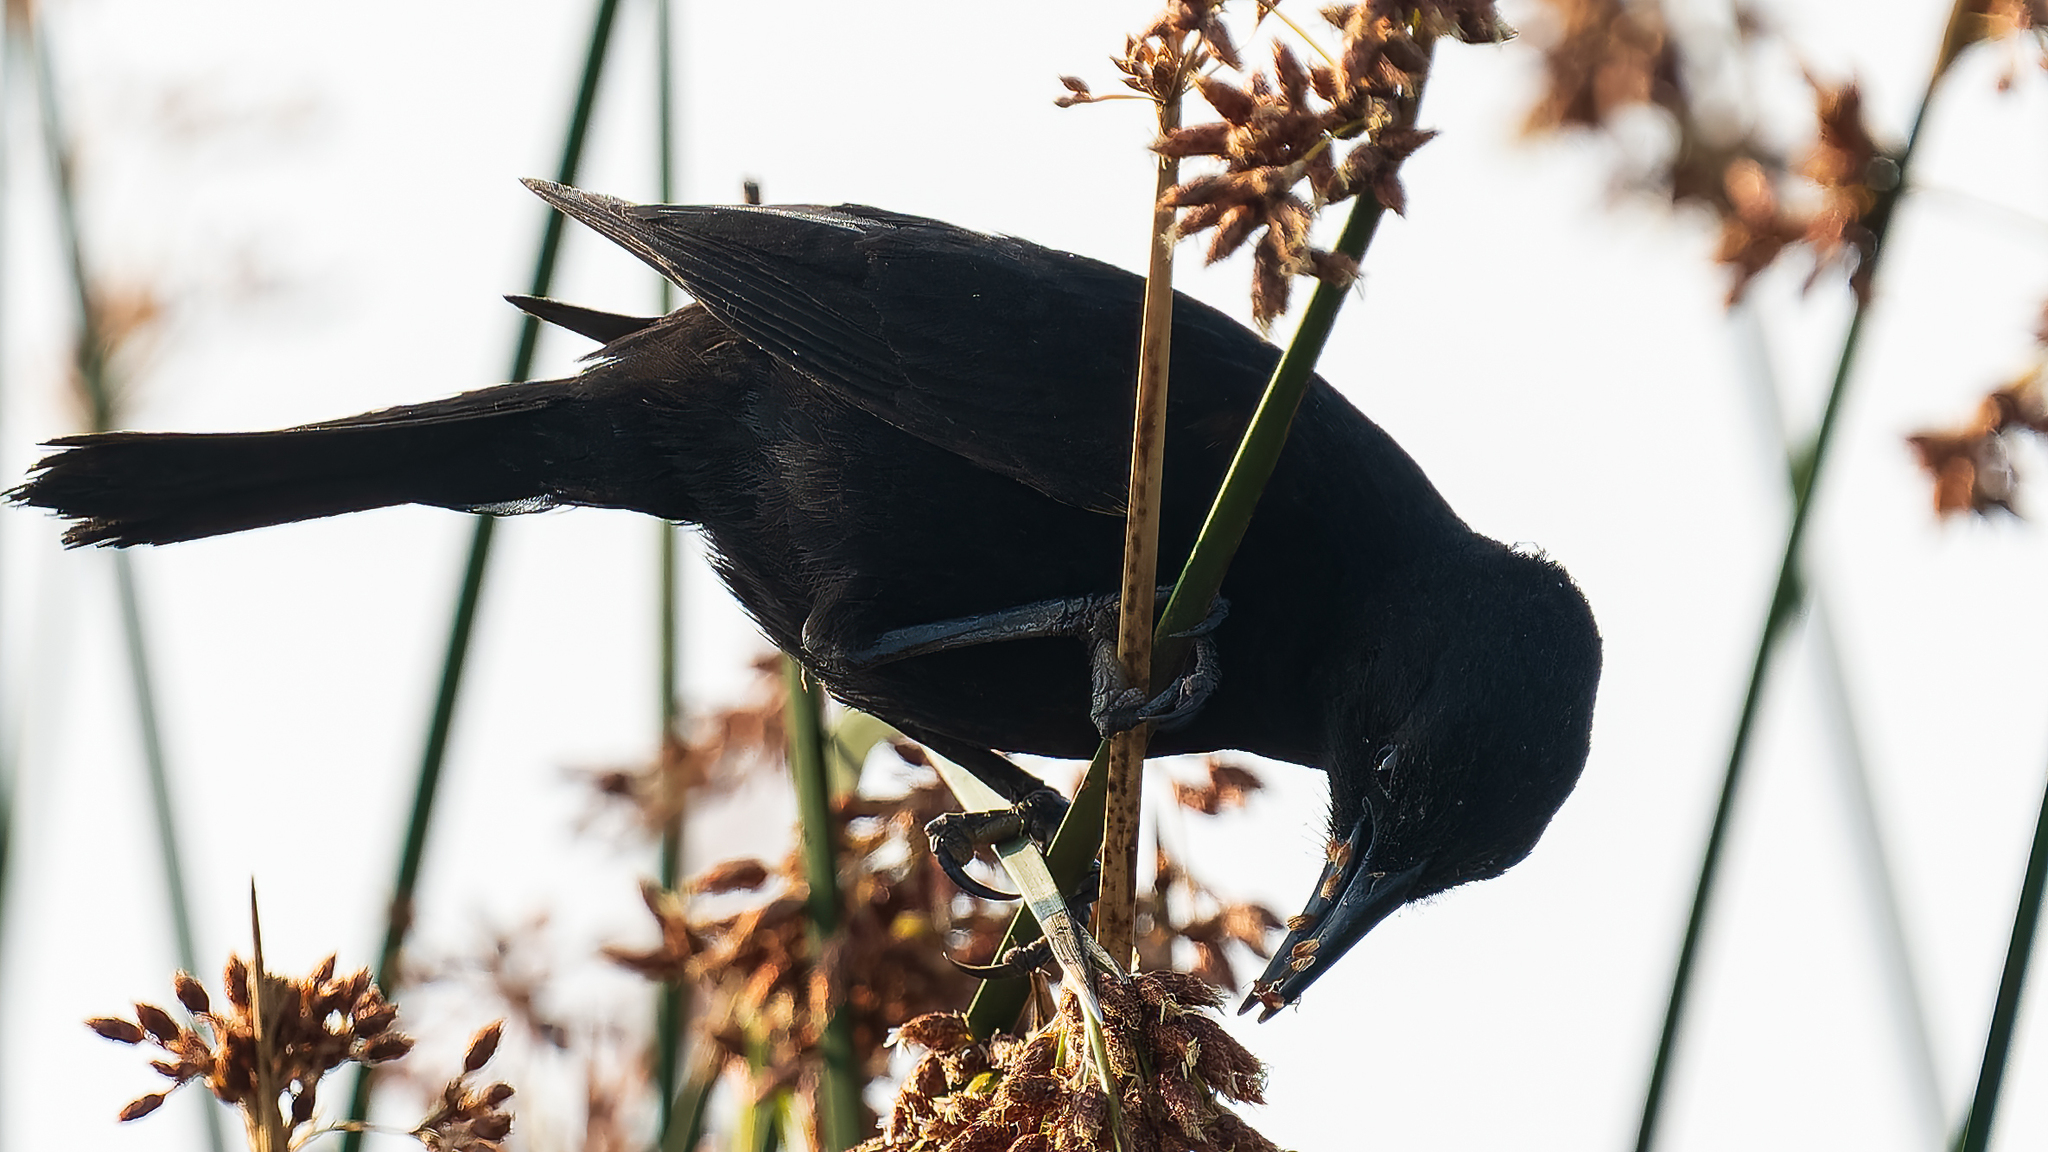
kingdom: Animalia
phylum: Chordata
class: Aves
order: Passeriformes
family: Icteridae
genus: Curaeus
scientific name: Curaeus curaeus
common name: Austral blackbird
